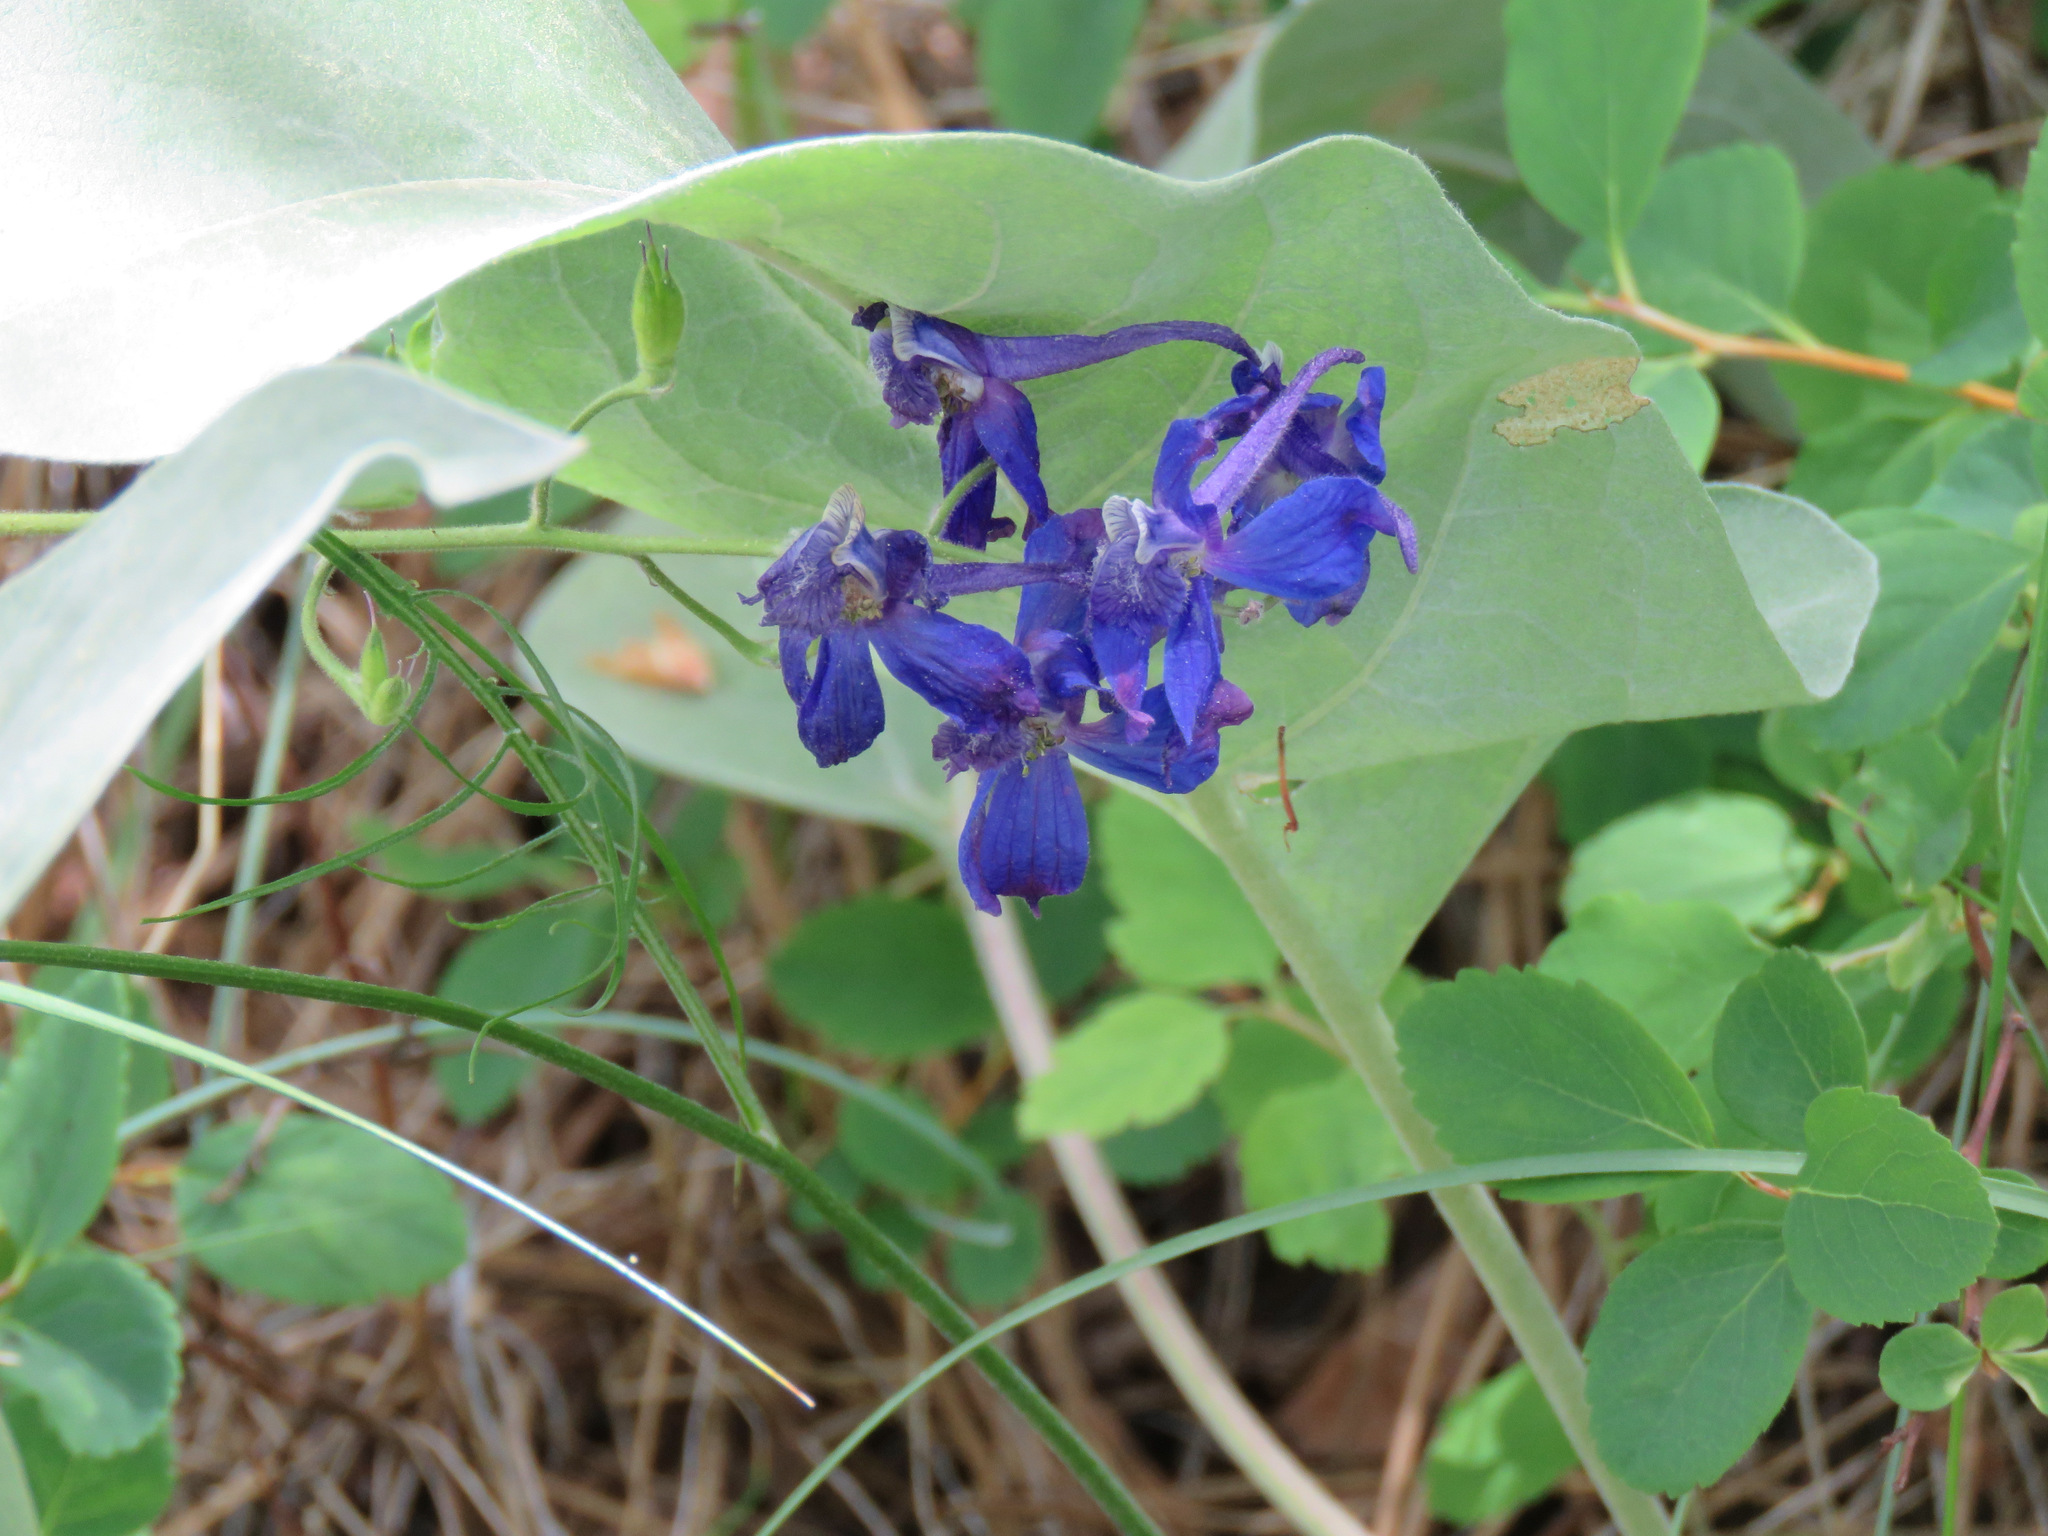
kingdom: Plantae
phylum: Tracheophyta
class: Magnoliopsida
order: Ranunculales
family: Ranunculaceae
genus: Delphinium
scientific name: Delphinium nuttallianum
